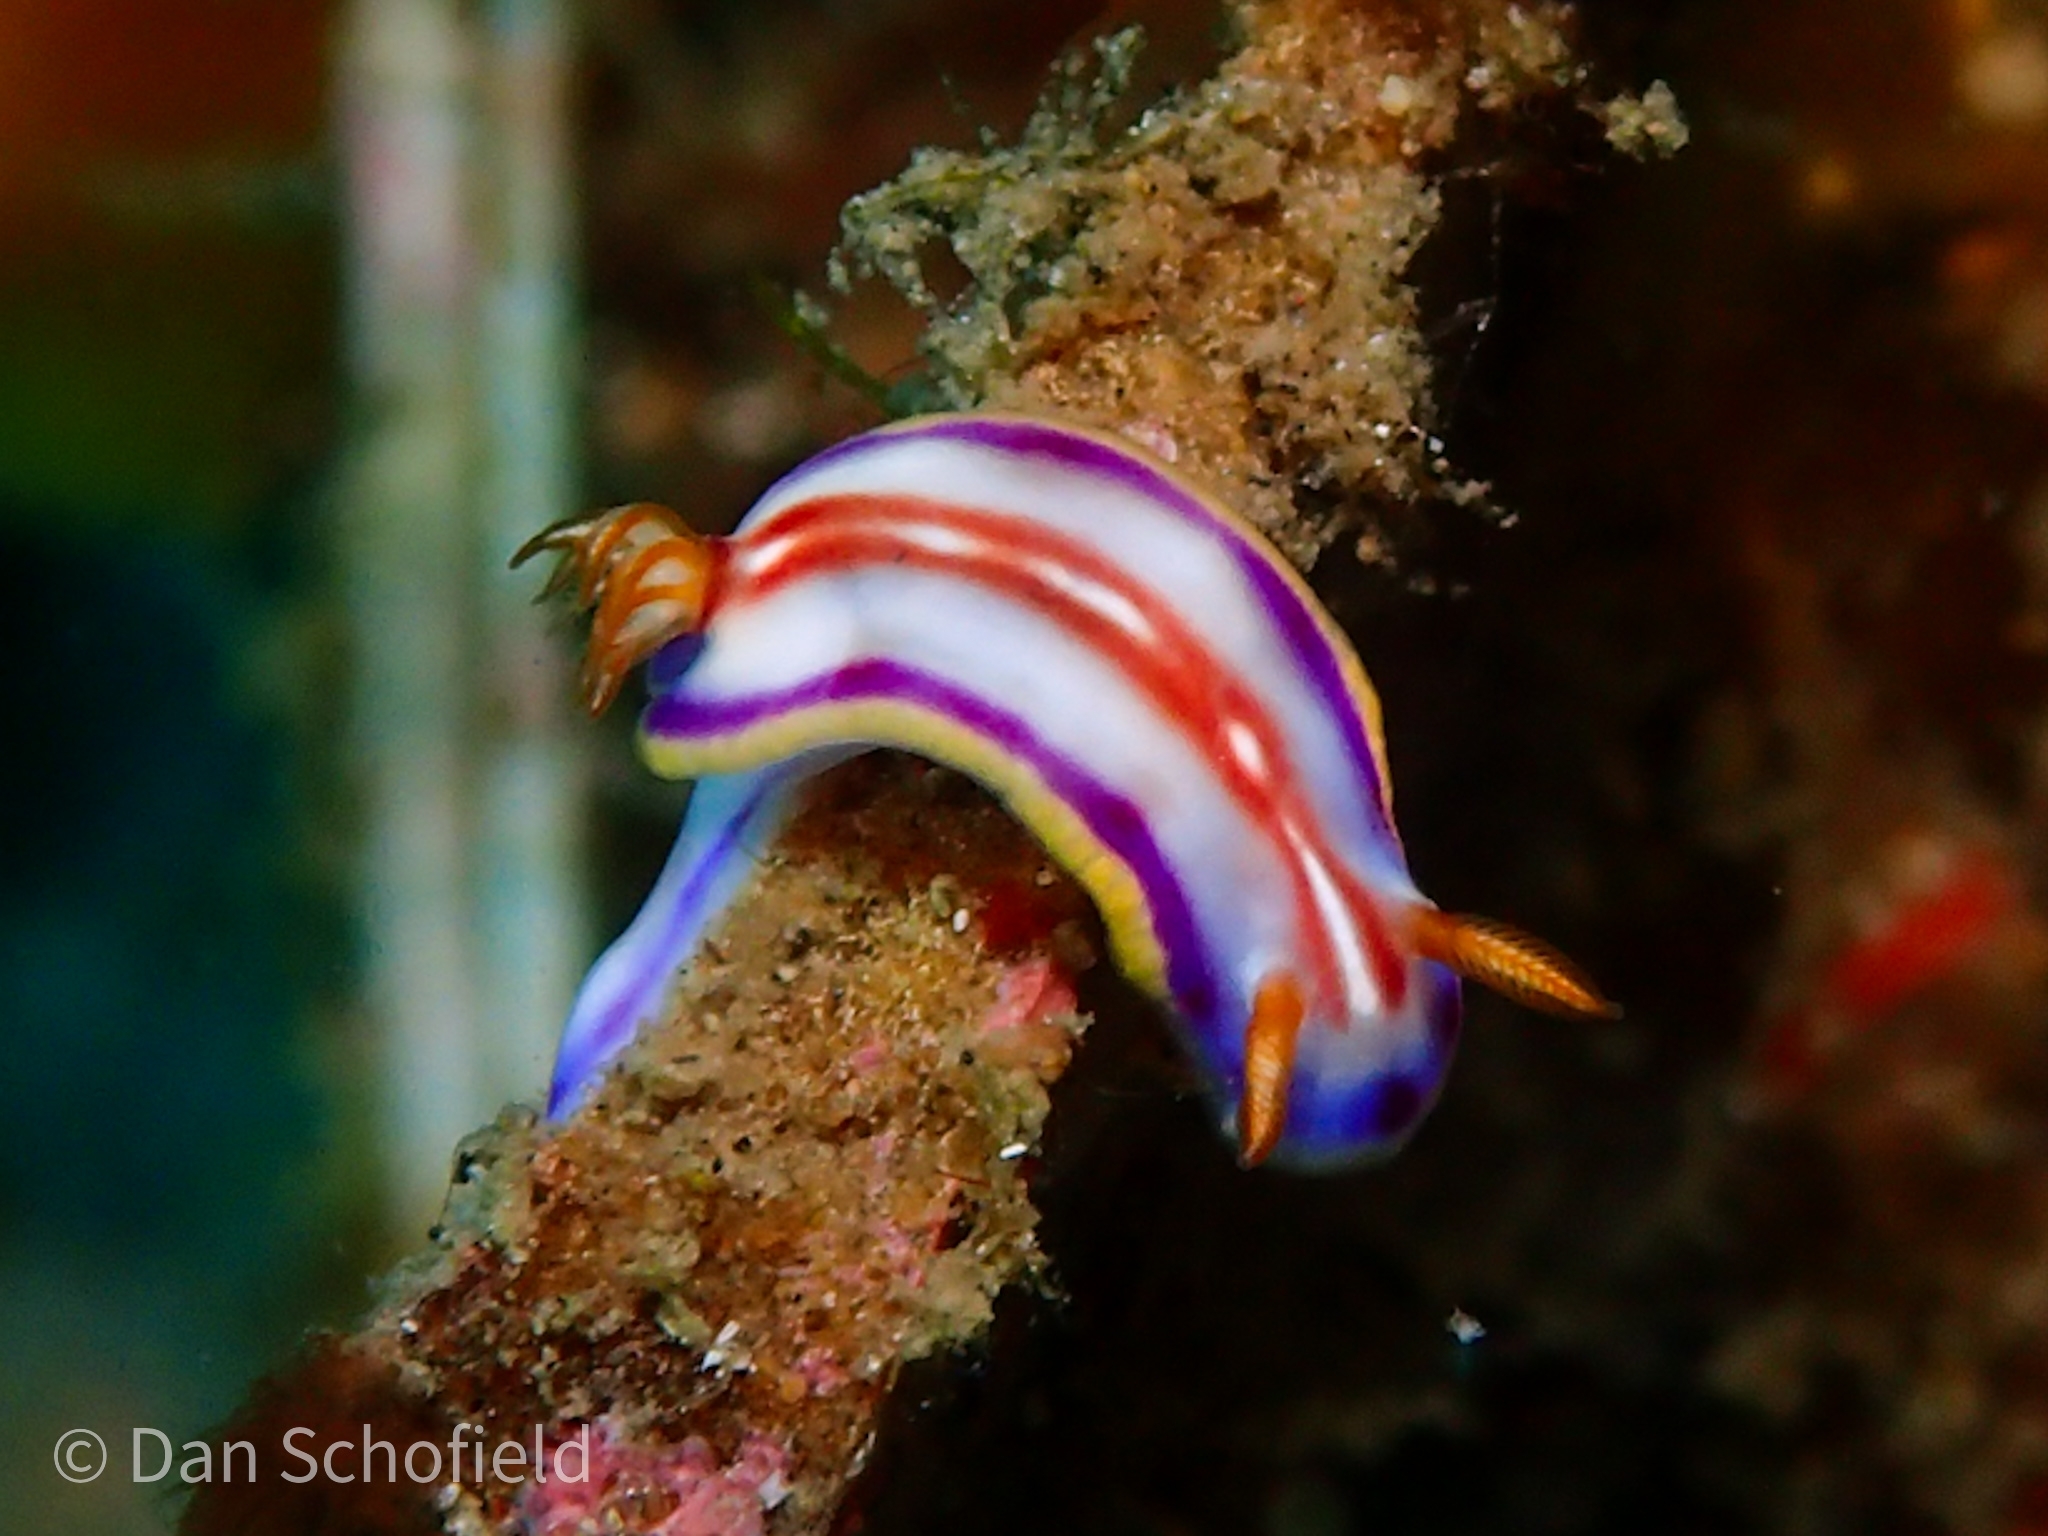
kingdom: Animalia
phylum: Mollusca
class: Gastropoda
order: Nudibranchia
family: Chromodorididae
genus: Hypselodoris
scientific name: Hypselodoris kaname
